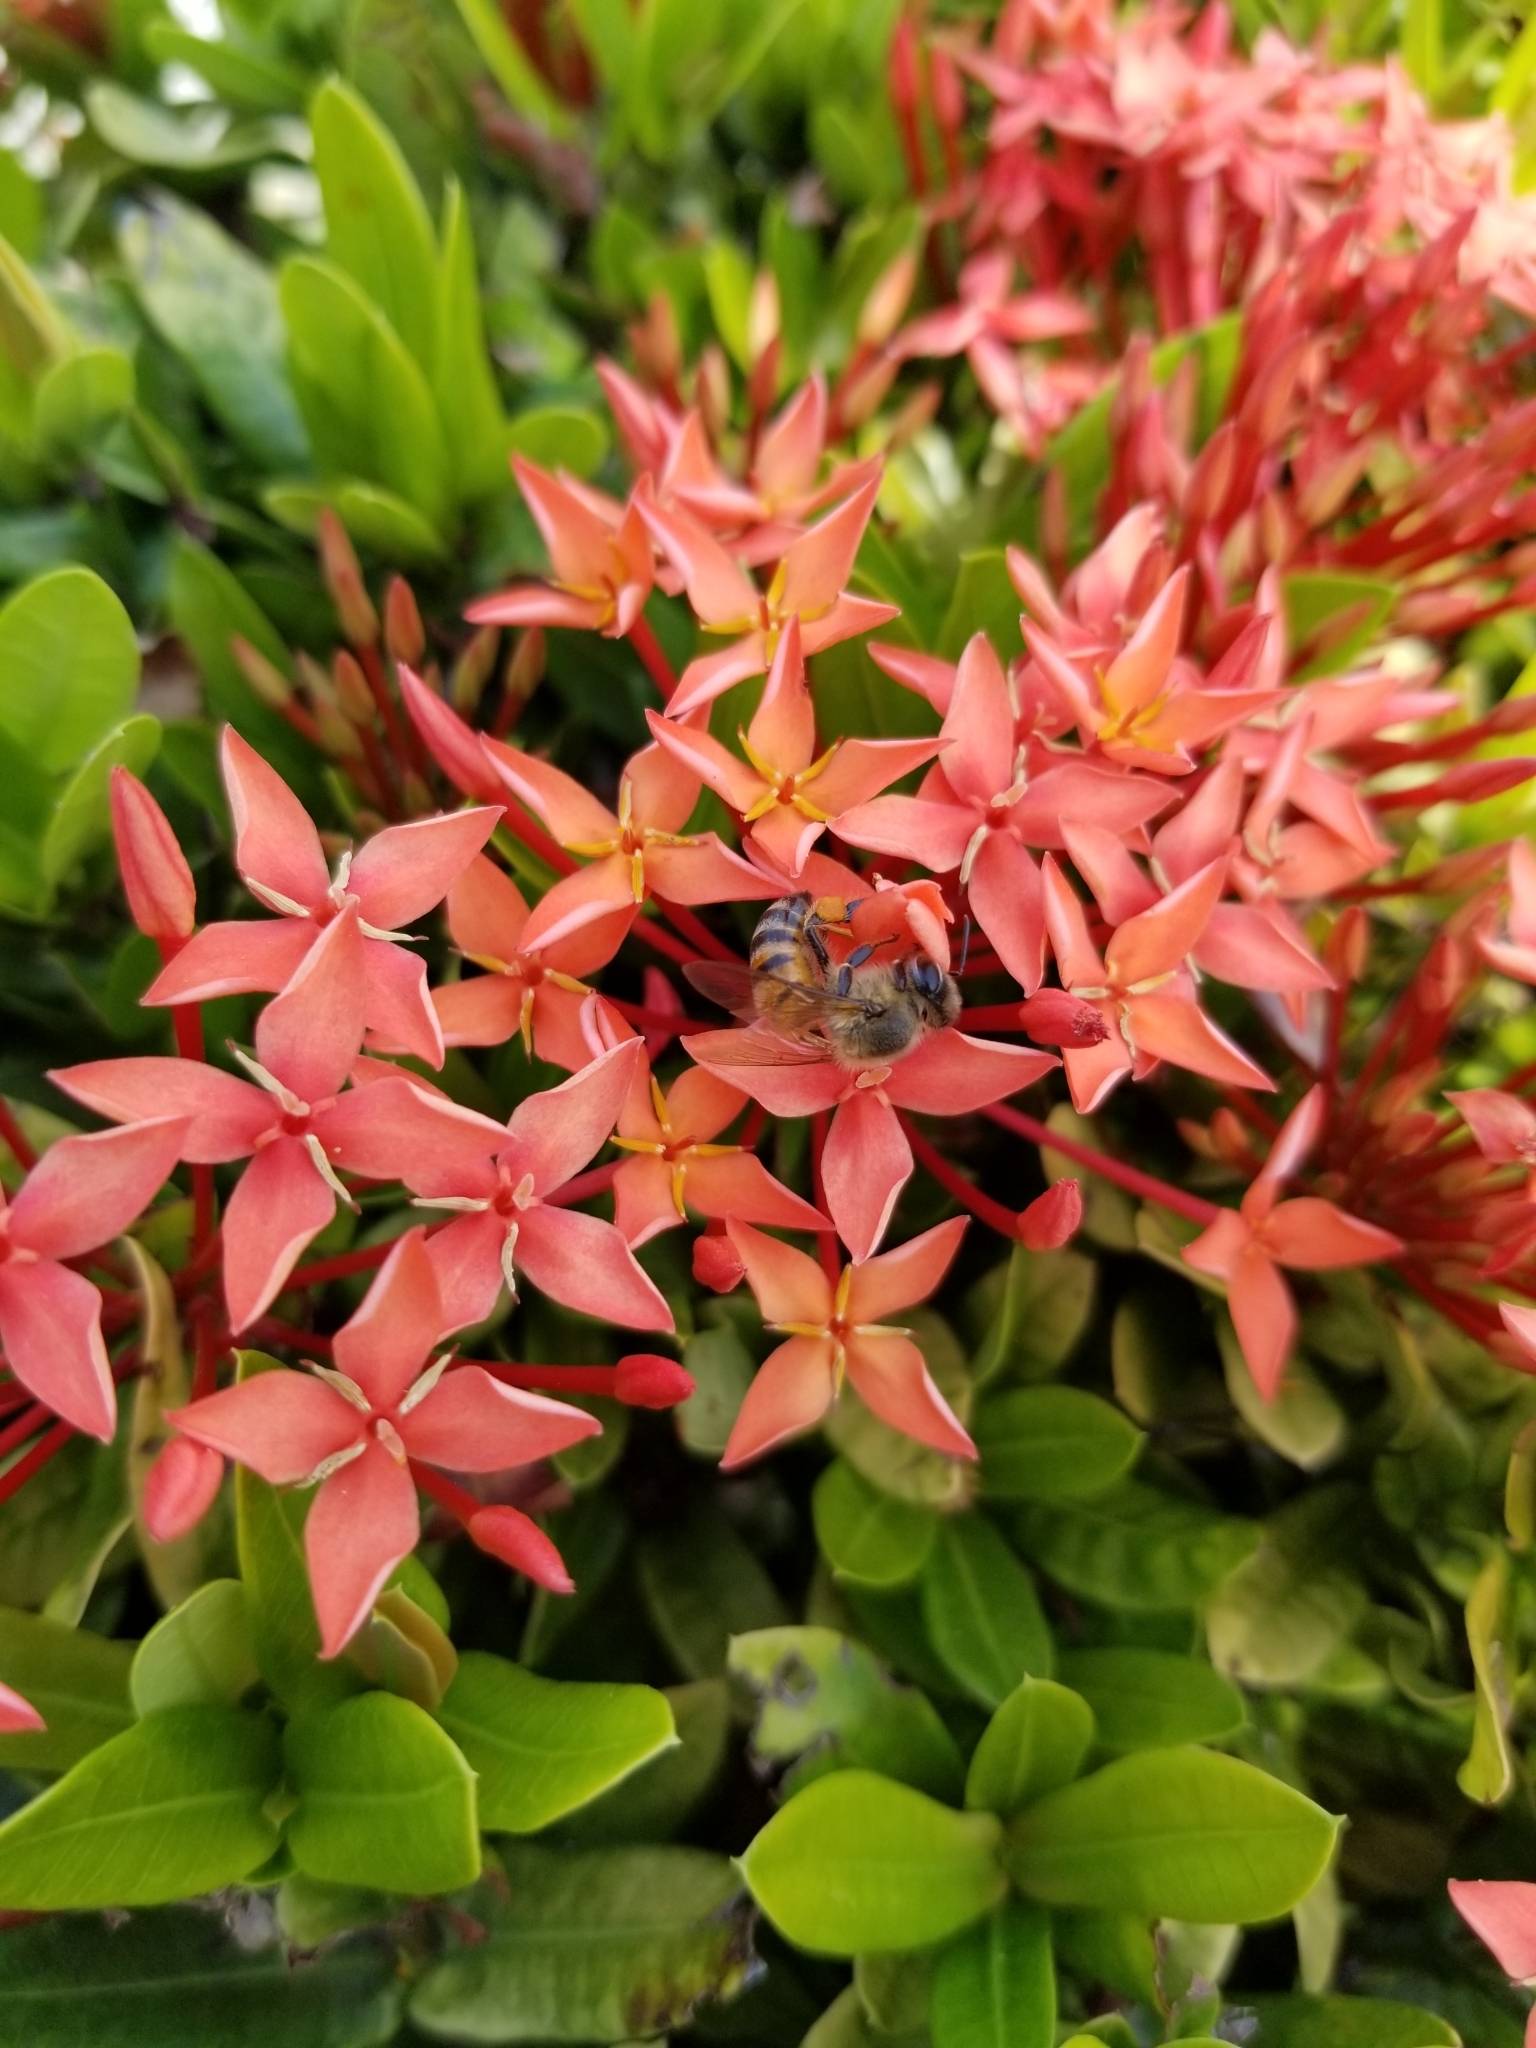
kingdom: Animalia
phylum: Arthropoda
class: Insecta
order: Hymenoptera
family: Apidae
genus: Apis
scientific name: Apis mellifera
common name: Honey bee
